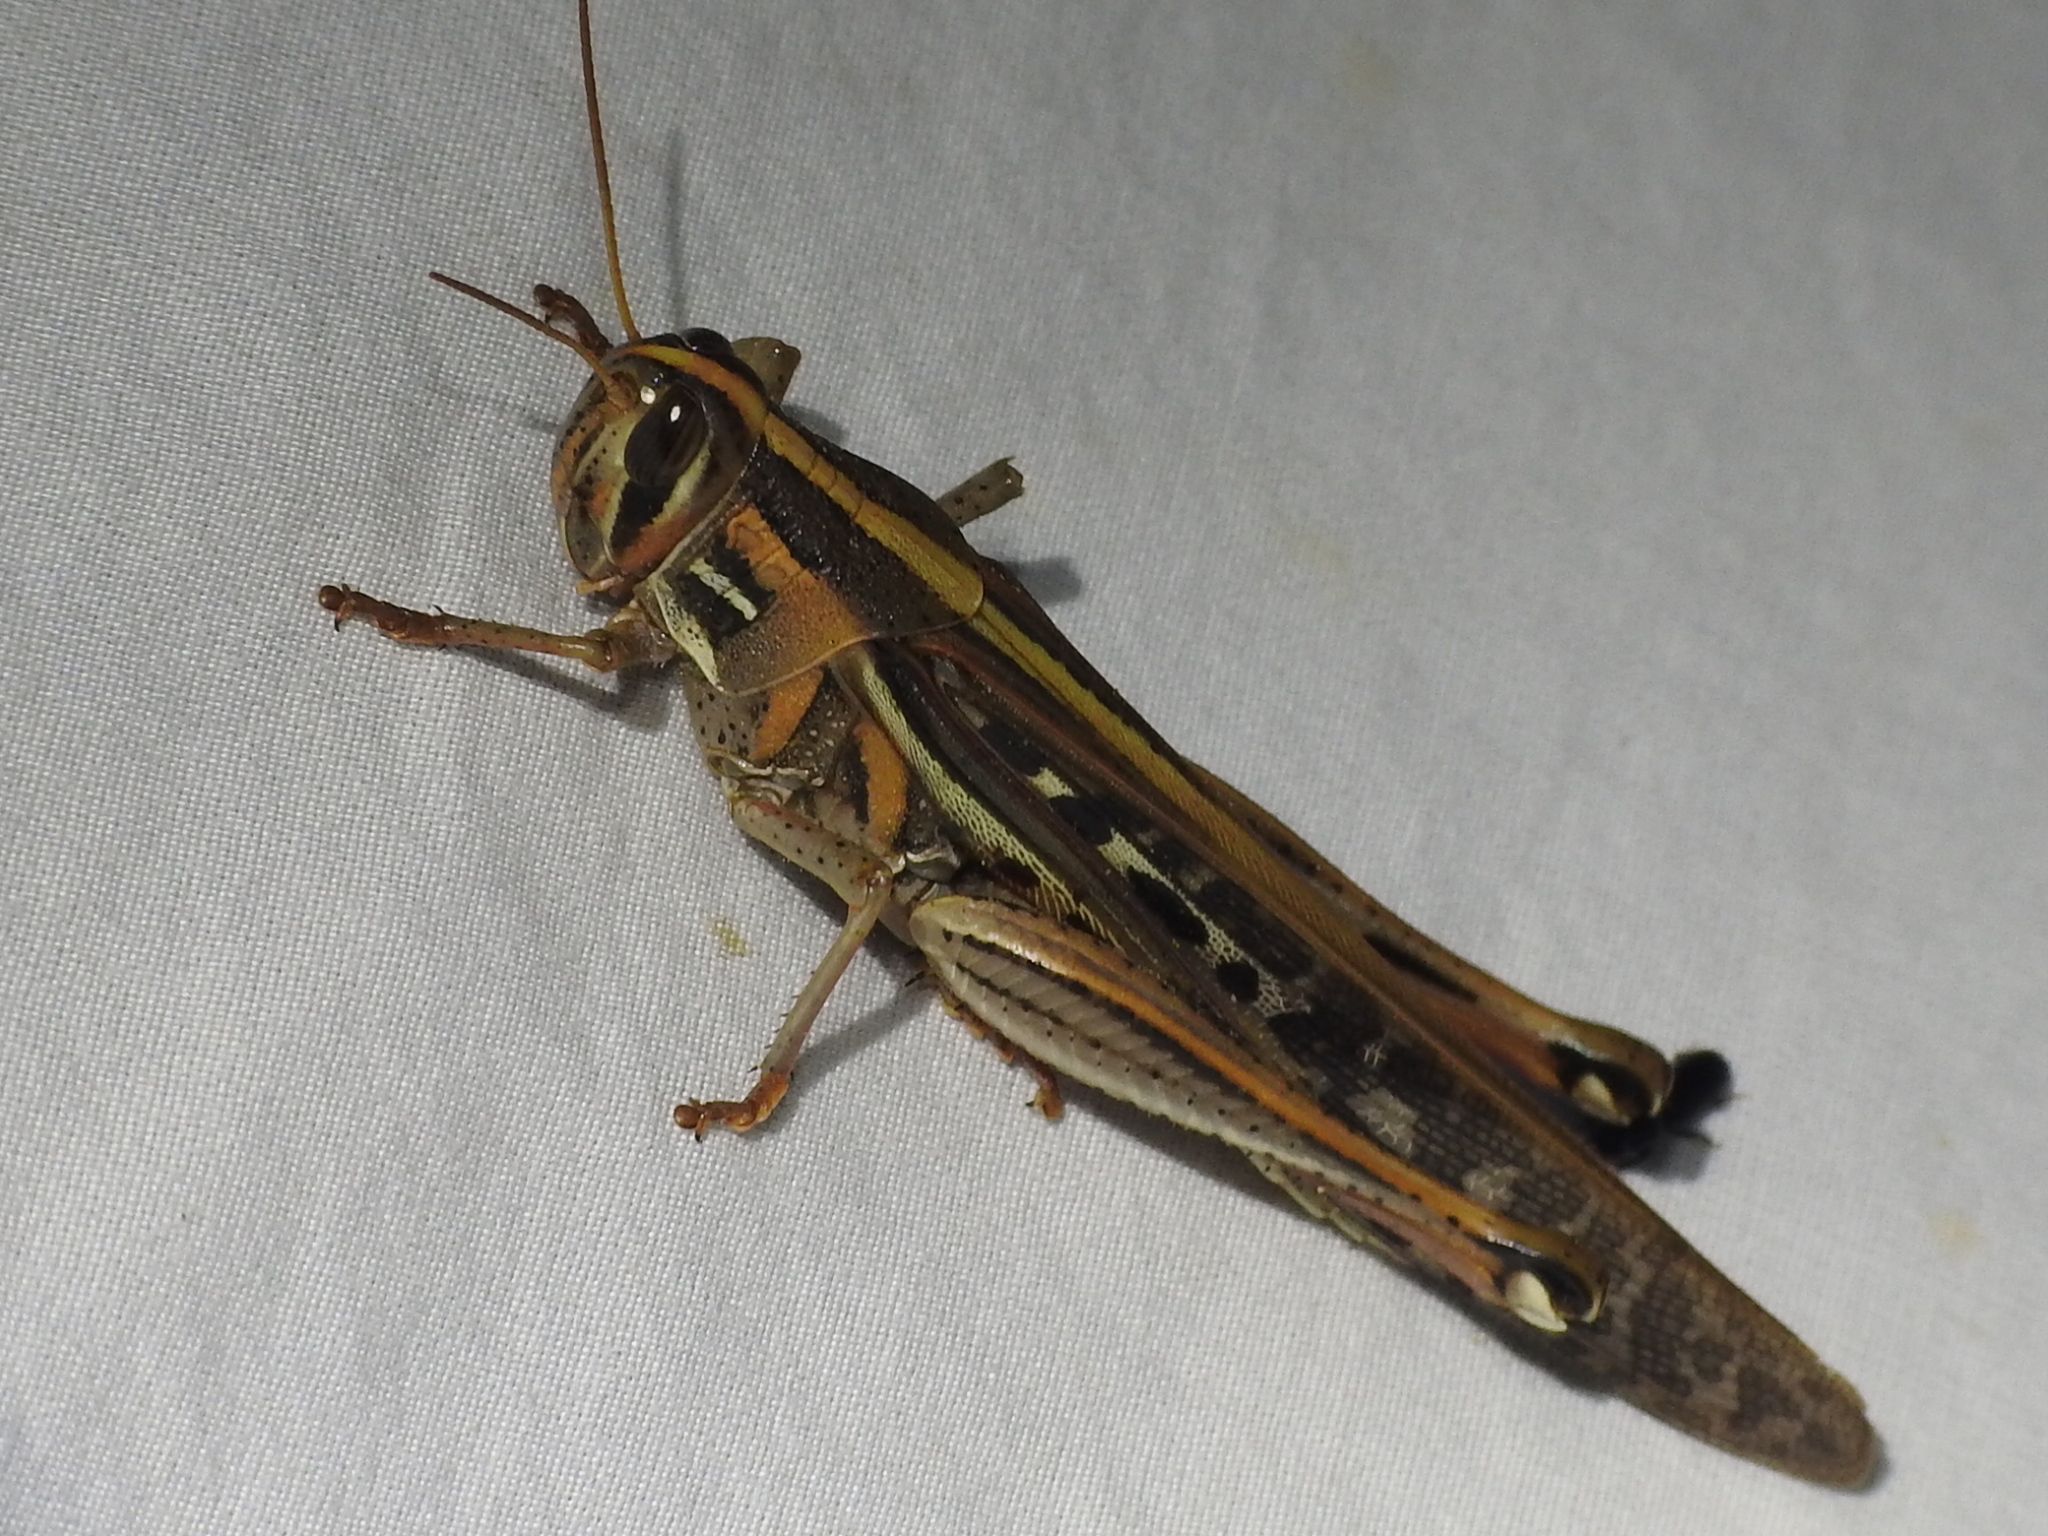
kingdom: Animalia
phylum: Arthropoda
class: Insecta
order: Orthoptera
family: Acrididae
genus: Schistocerca
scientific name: Schistocerca americana
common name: American bird locust
